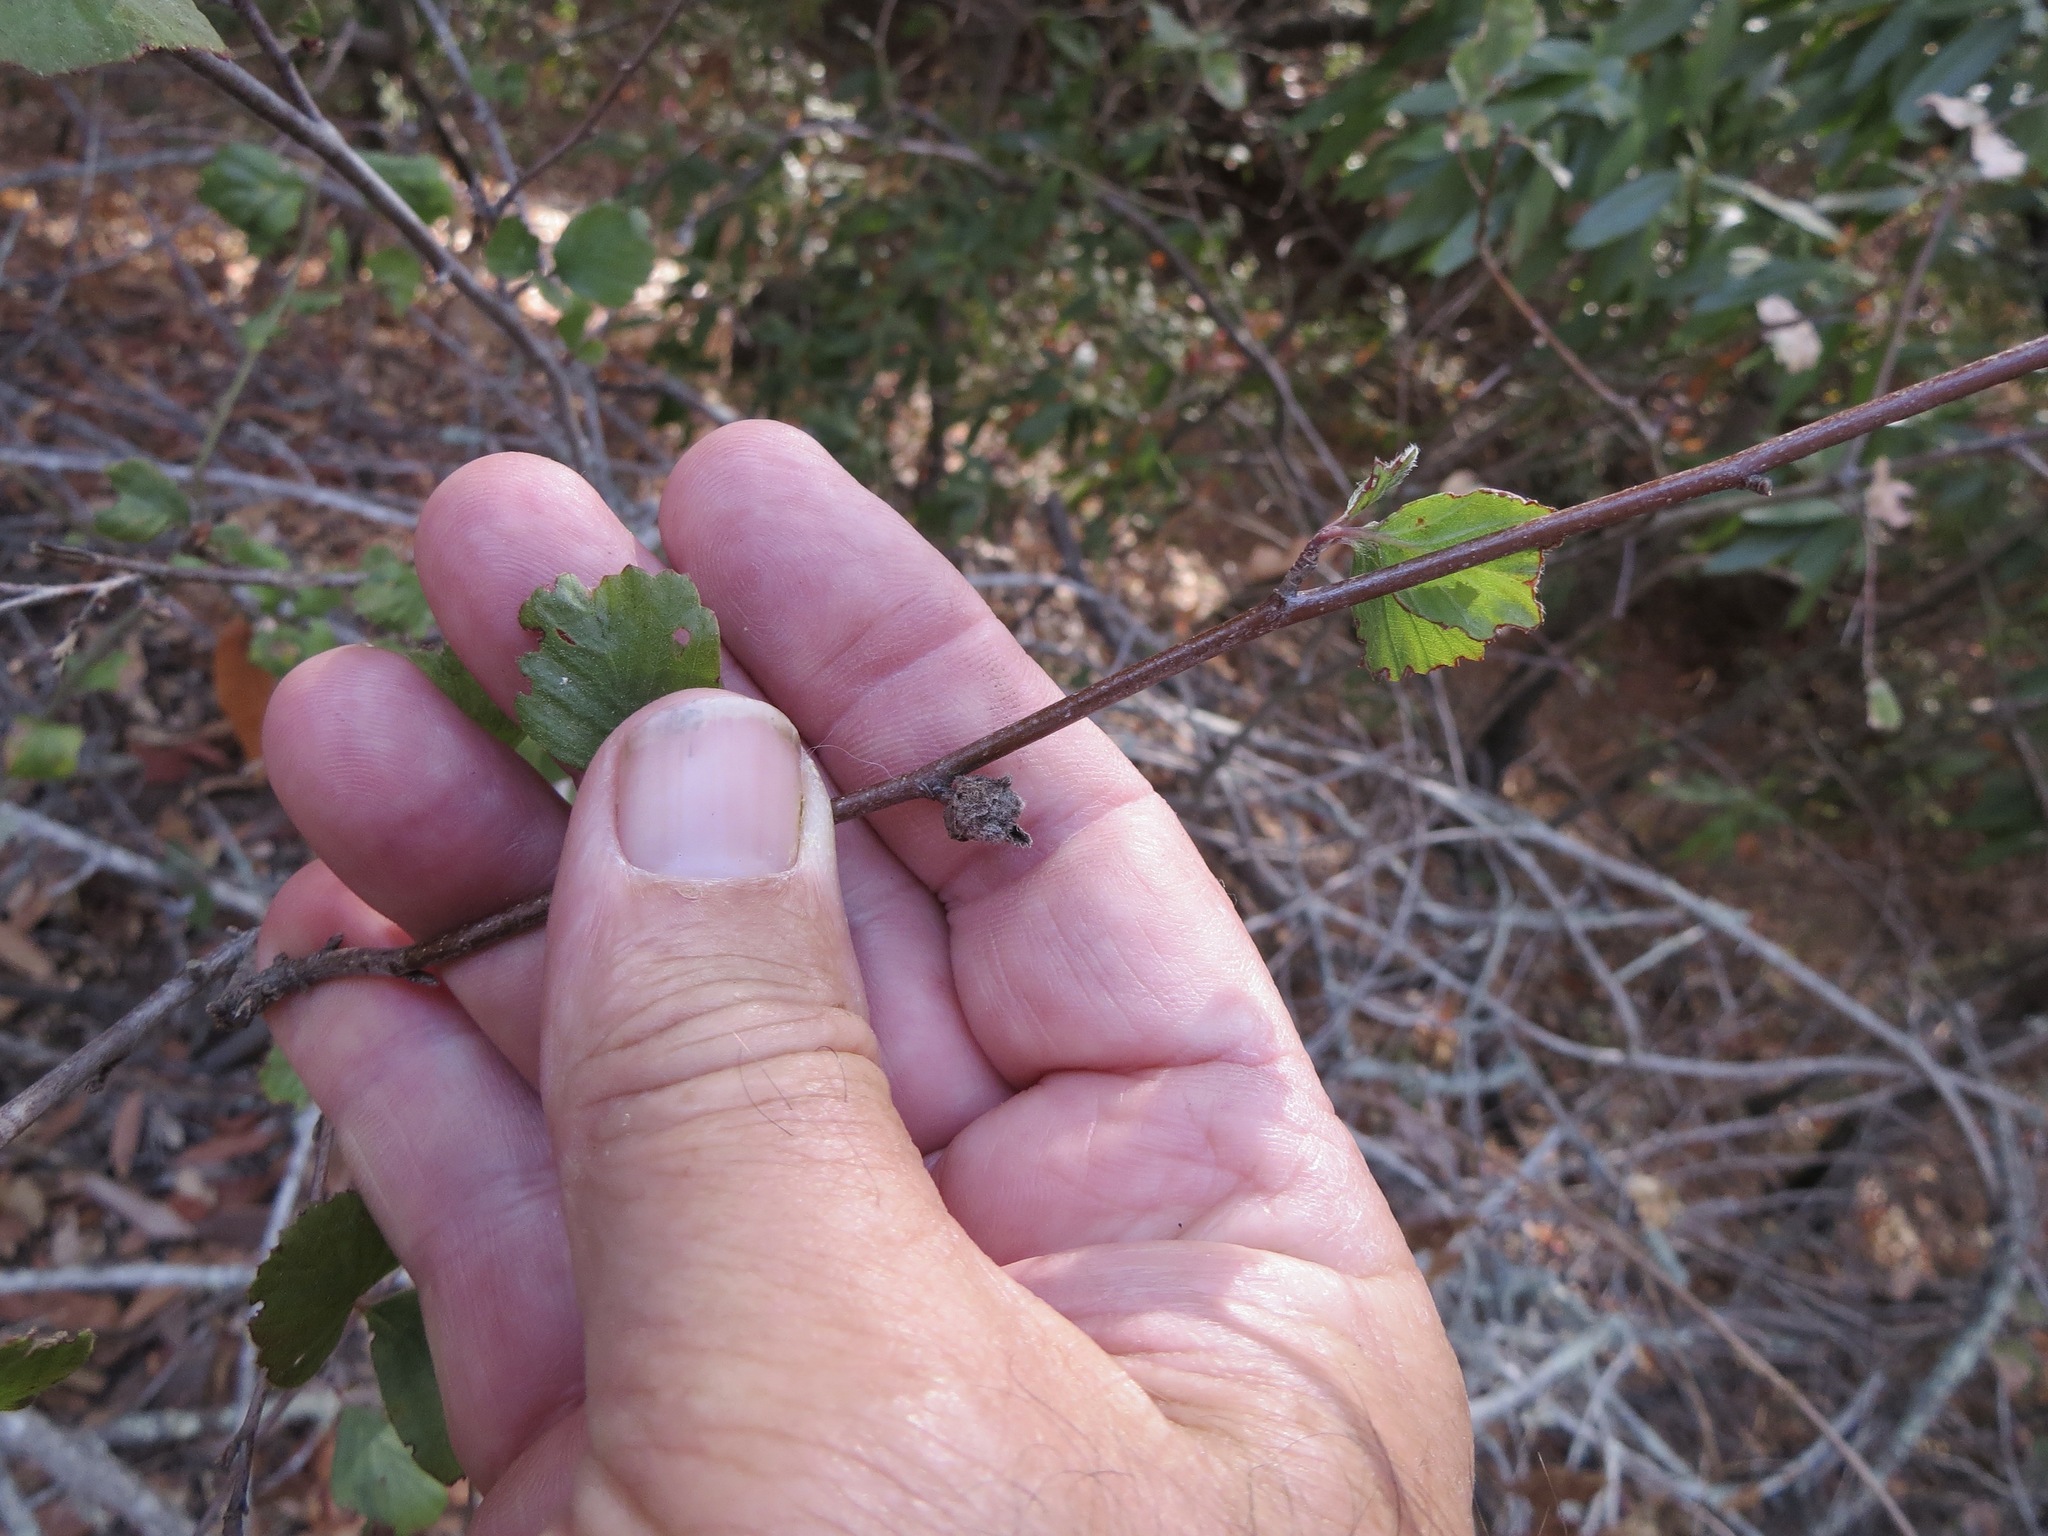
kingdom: Animalia
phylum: Arthropoda
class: Insecta
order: Diptera
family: Cecidomyiidae
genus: Dasineura
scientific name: Dasineura cercocarpi
